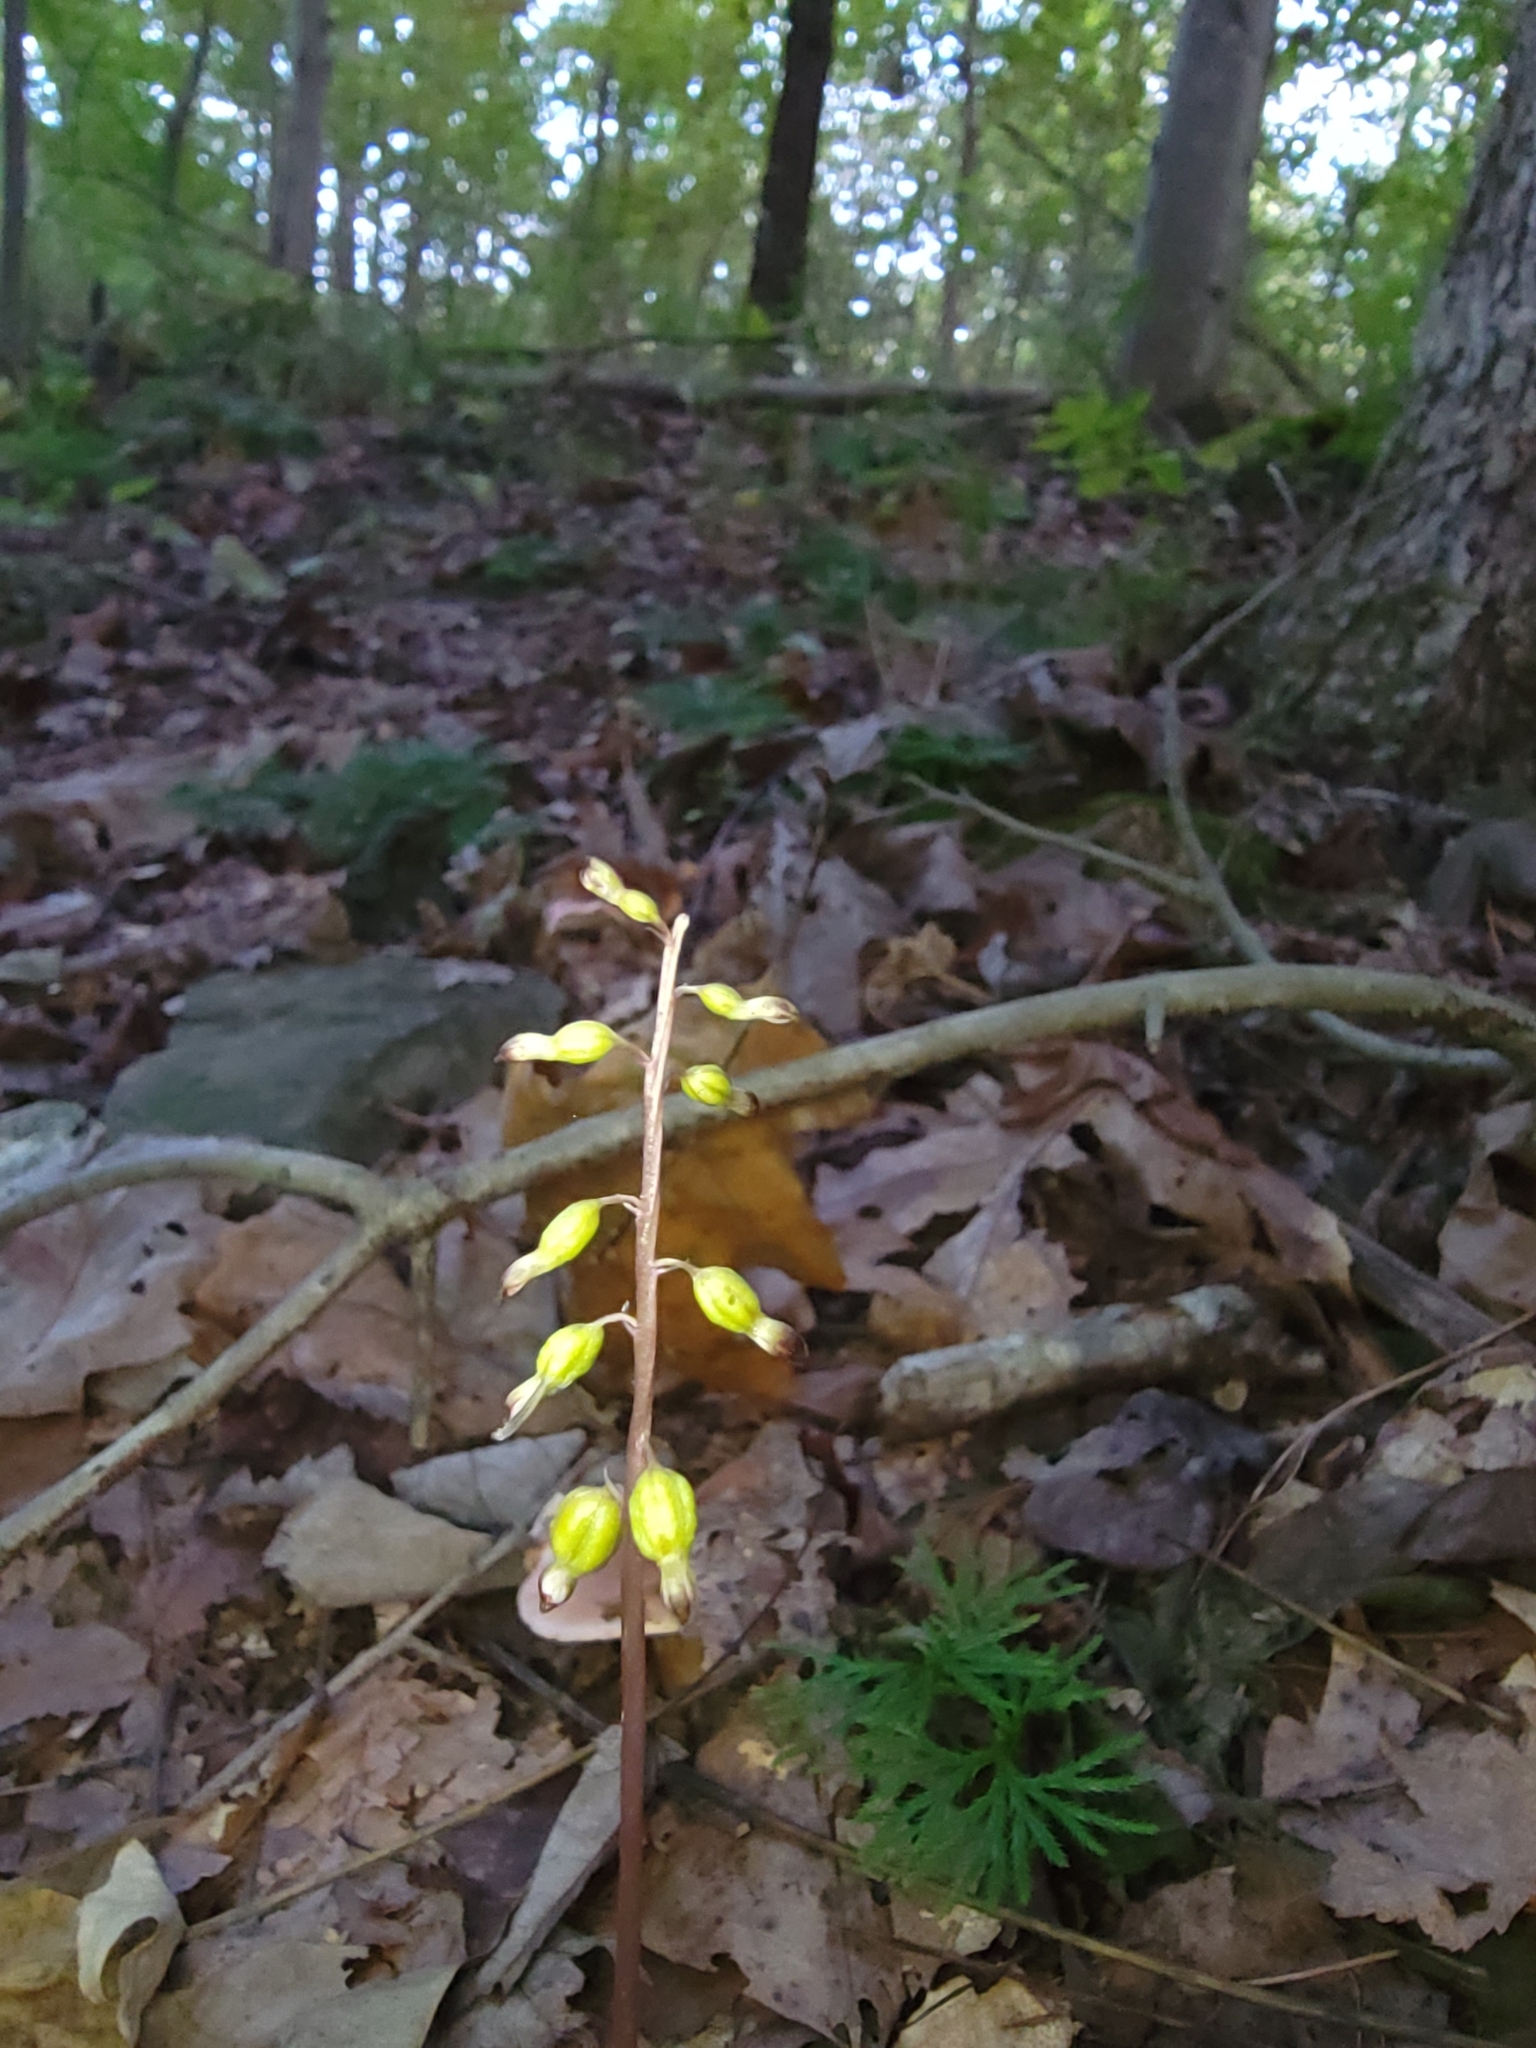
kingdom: Plantae
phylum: Tracheophyta
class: Liliopsida
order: Asparagales
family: Orchidaceae
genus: Corallorhiza
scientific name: Corallorhiza odontorhiza
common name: Autumn coralroot
